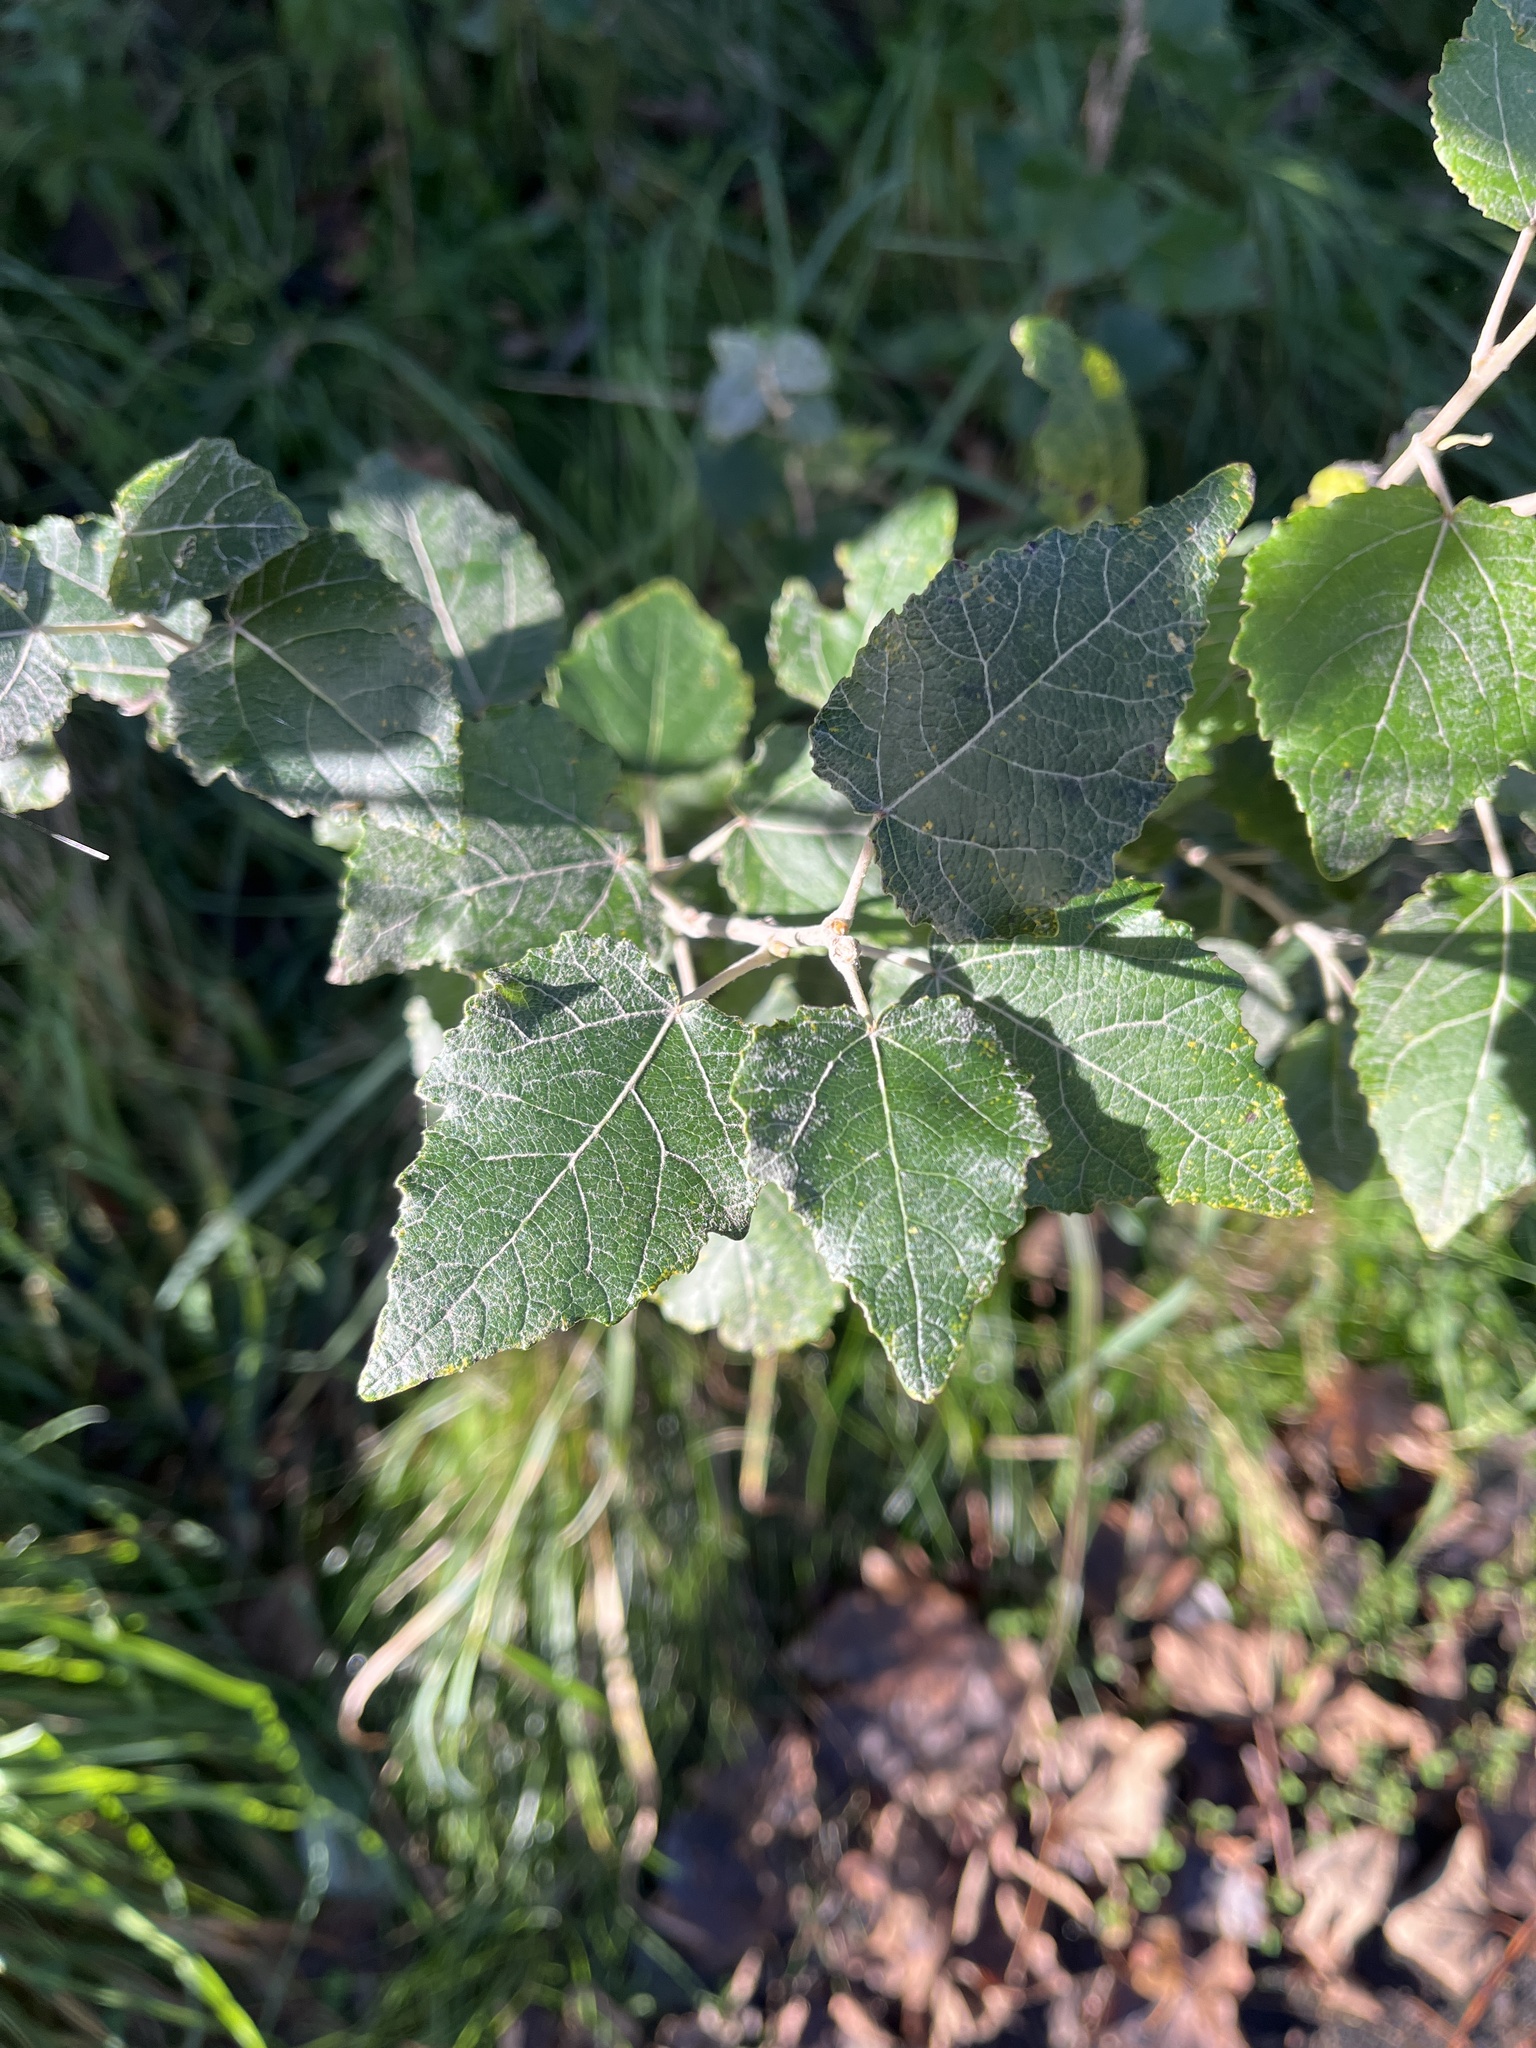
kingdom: Plantae
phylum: Tracheophyta
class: Magnoliopsida
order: Malpighiales
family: Salicaceae
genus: Populus
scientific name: Populus canescens
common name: Gray poplar
